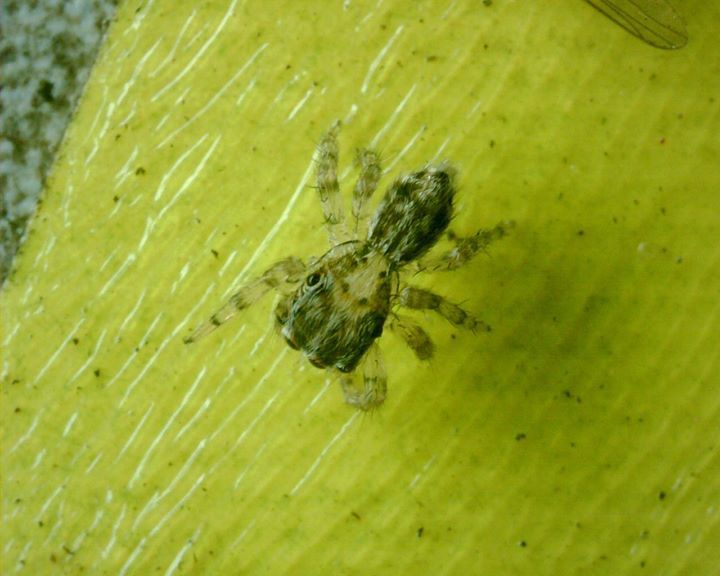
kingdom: Animalia
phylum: Arthropoda
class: Arachnida
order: Araneae
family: Salticidae
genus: Plexippus
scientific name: Plexippus petersi
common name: Jumping spider
